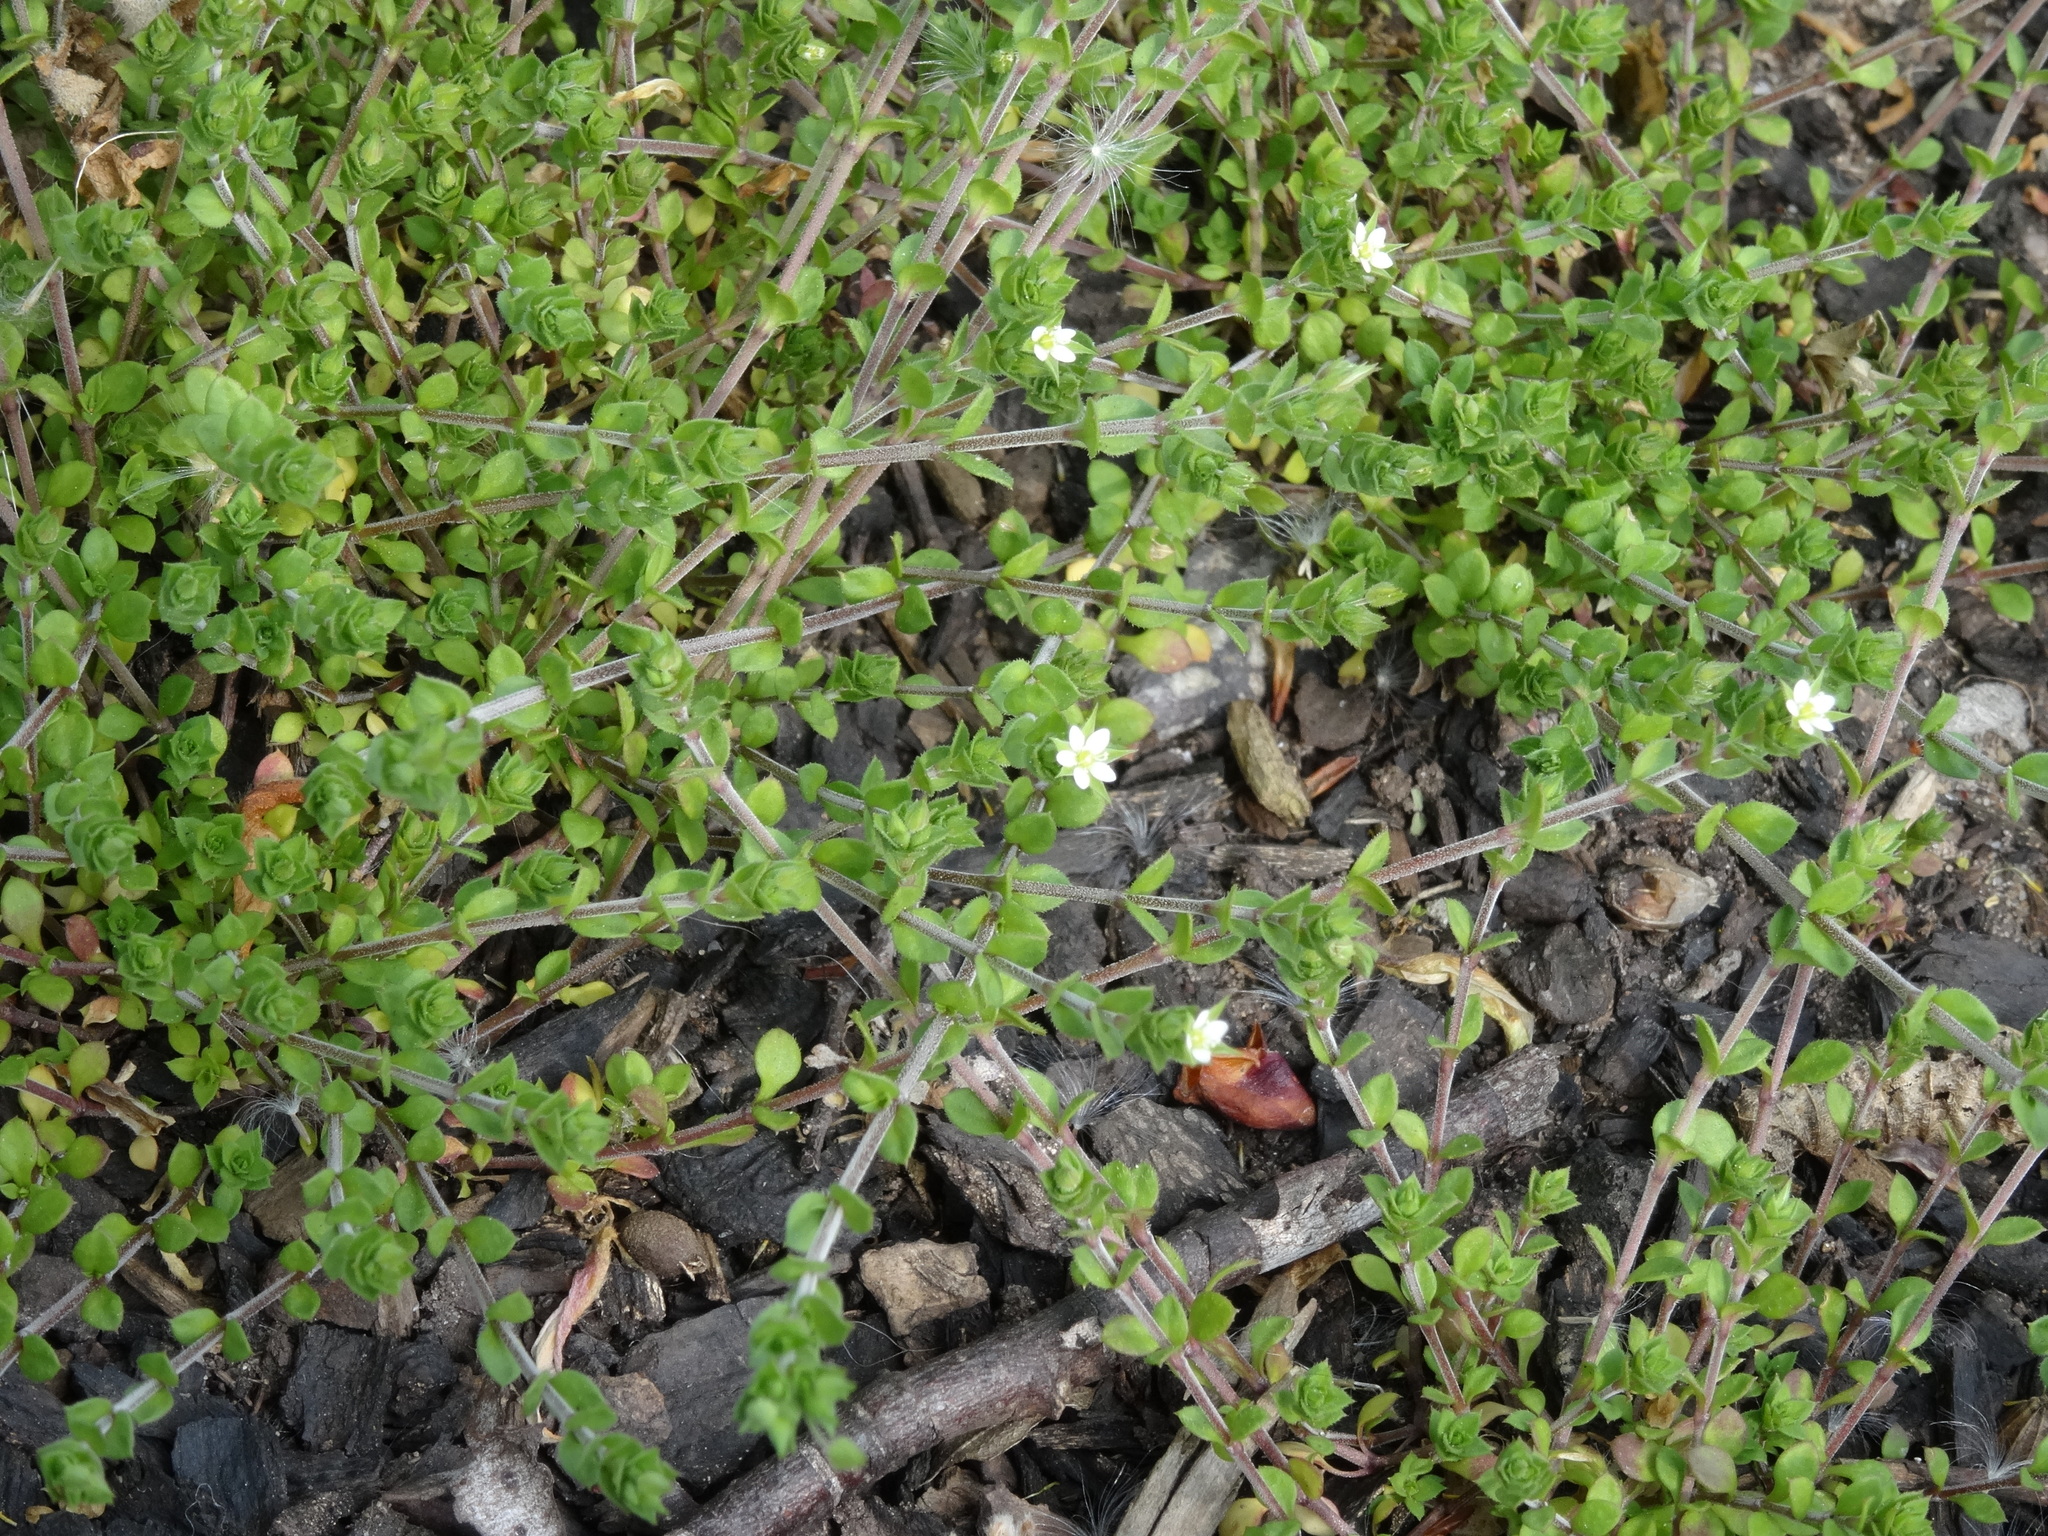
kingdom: Plantae
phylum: Tracheophyta
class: Magnoliopsida
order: Caryophyllales
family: Caryophyllaceae
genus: Arenaria
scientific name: Arenaria serpyllifolia
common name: Thyme-leaved sandwort
